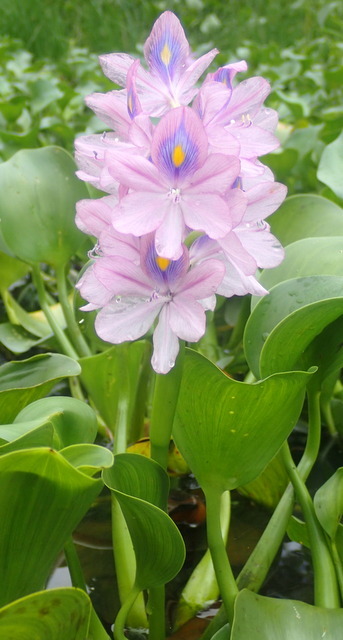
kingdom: Plantae
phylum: Tracheophyta
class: Liliopsida
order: Commelinales
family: Pontederiaceae
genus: Pontederia
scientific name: Pontederia crassipes
